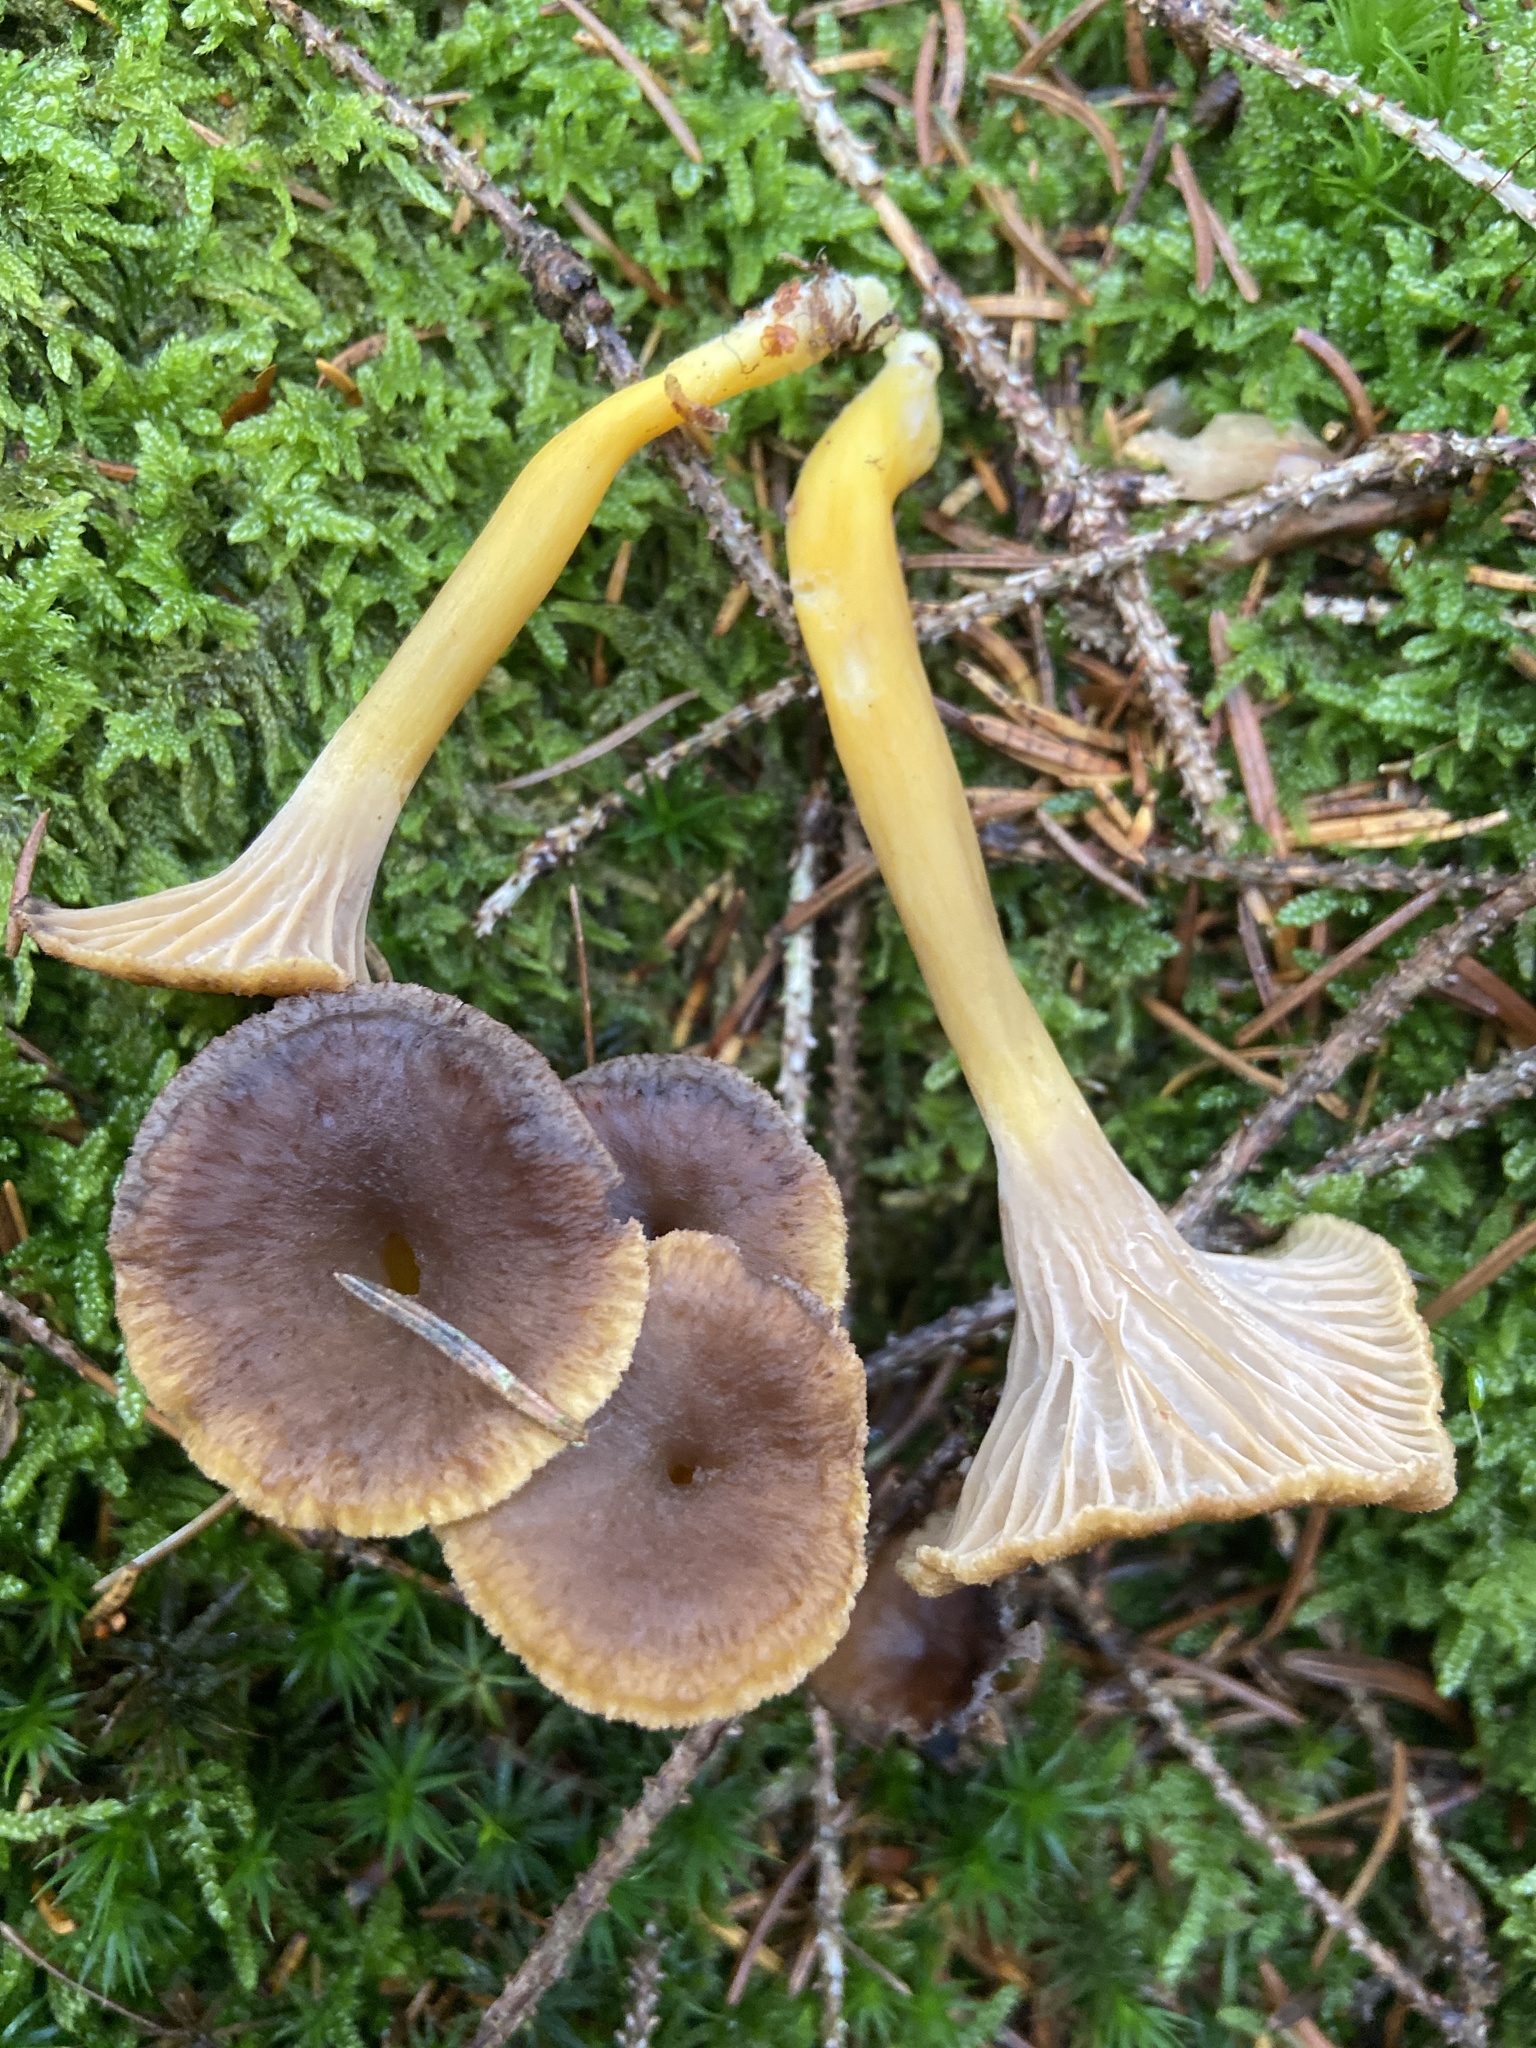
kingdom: Fungi
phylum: Basidiomycota
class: Agaricomycetes
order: Cantharellales
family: Hydnaceae
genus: Craterellus
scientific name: Craterellus tubaeformis
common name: Yellowfoot
